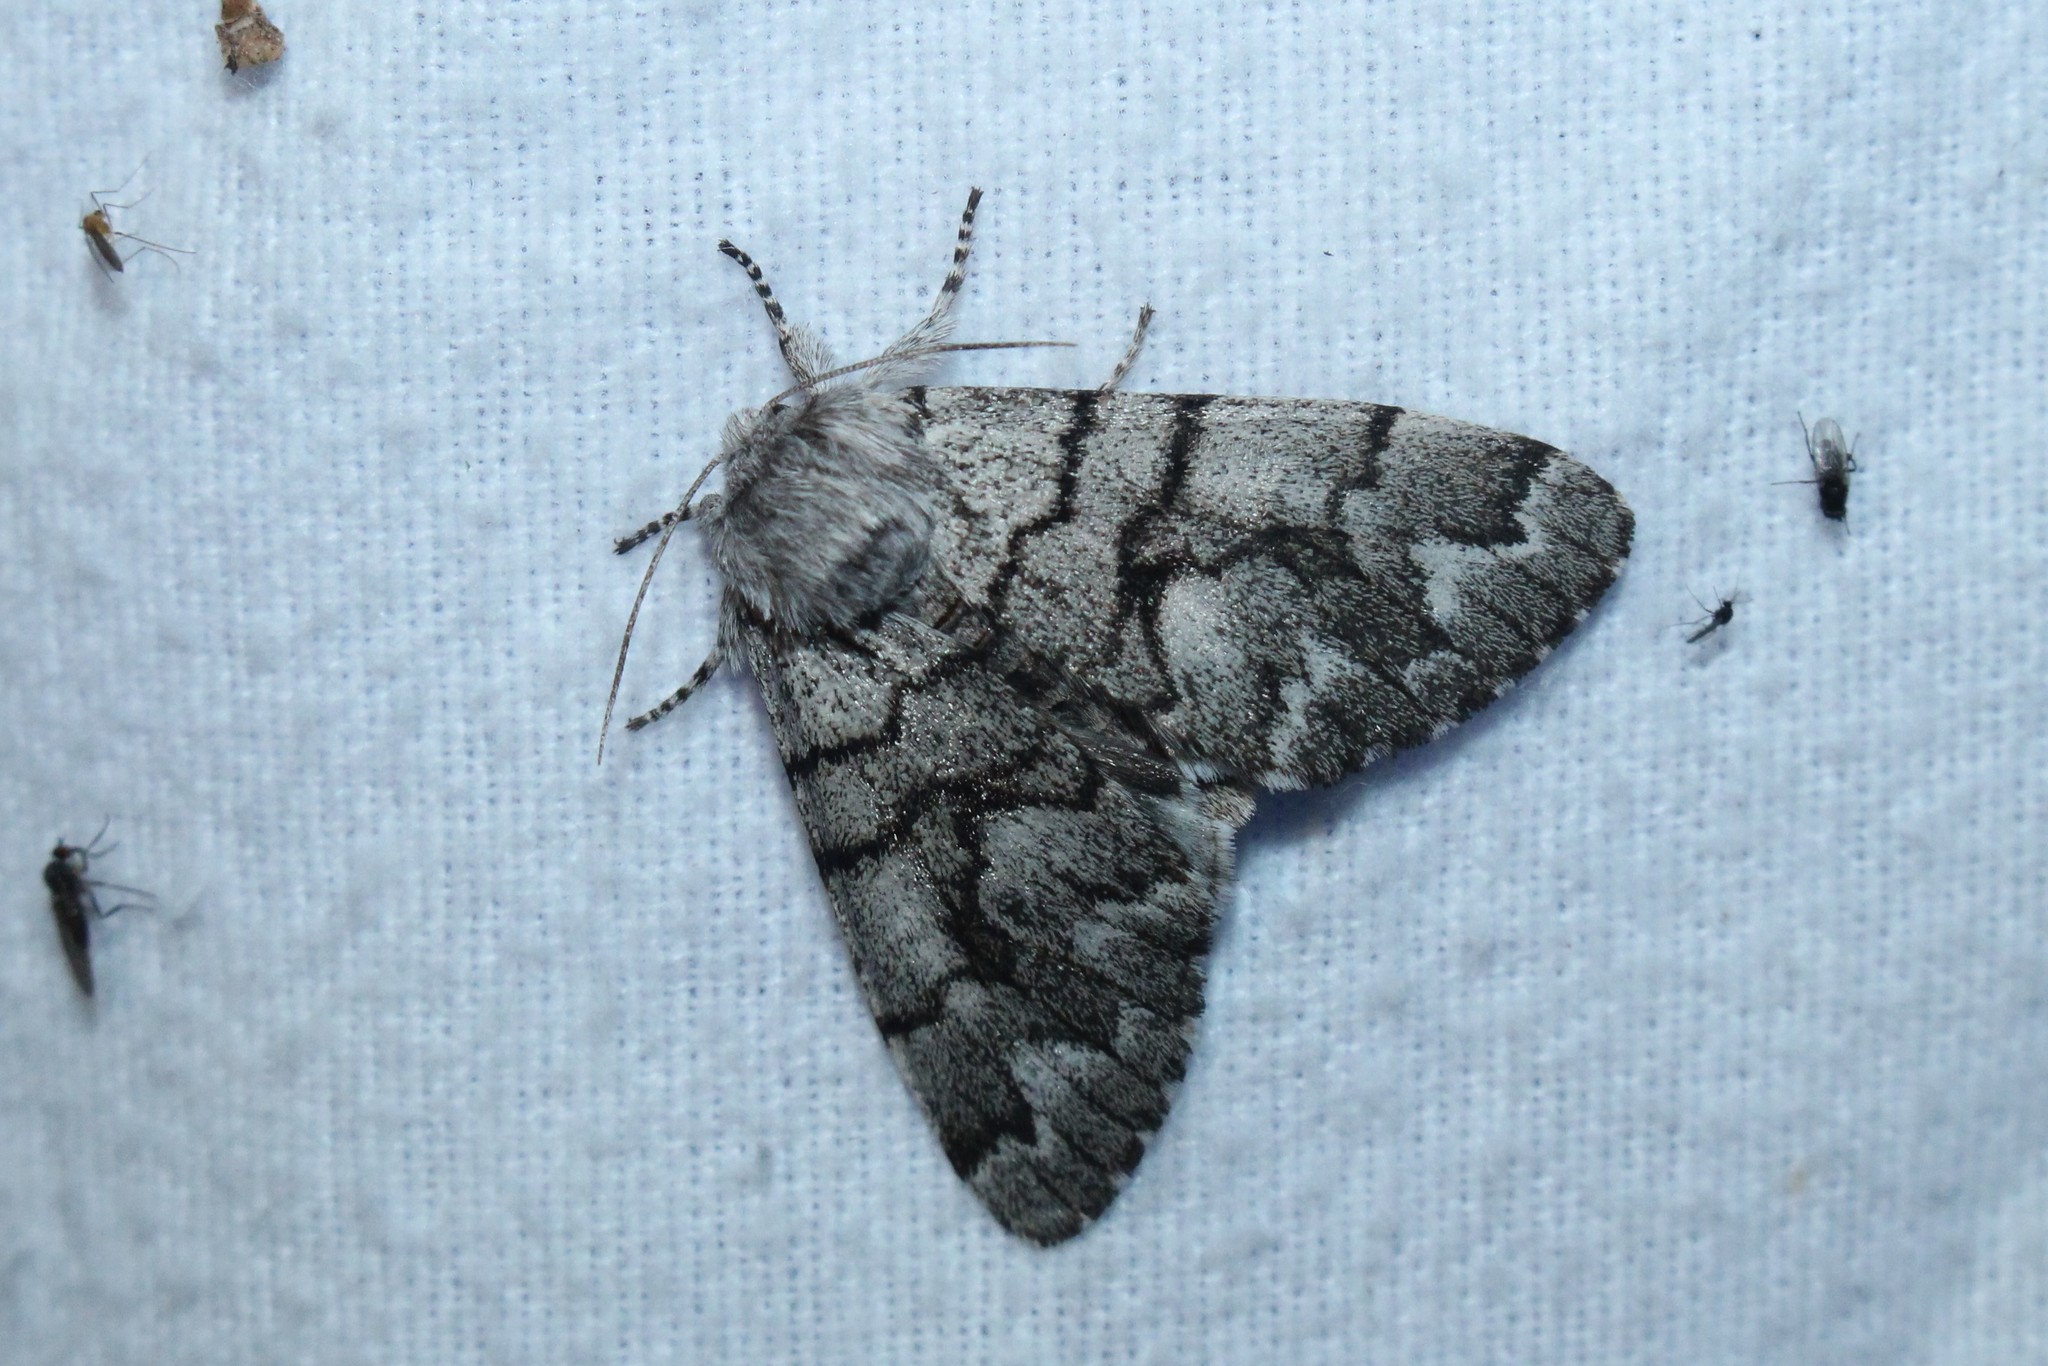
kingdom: Animalia
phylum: Arthropoda
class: Insecta
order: Lepidoptera
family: Noctuidae
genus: Panthea
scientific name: Panthea furcilla
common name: Eastern panthea moth
